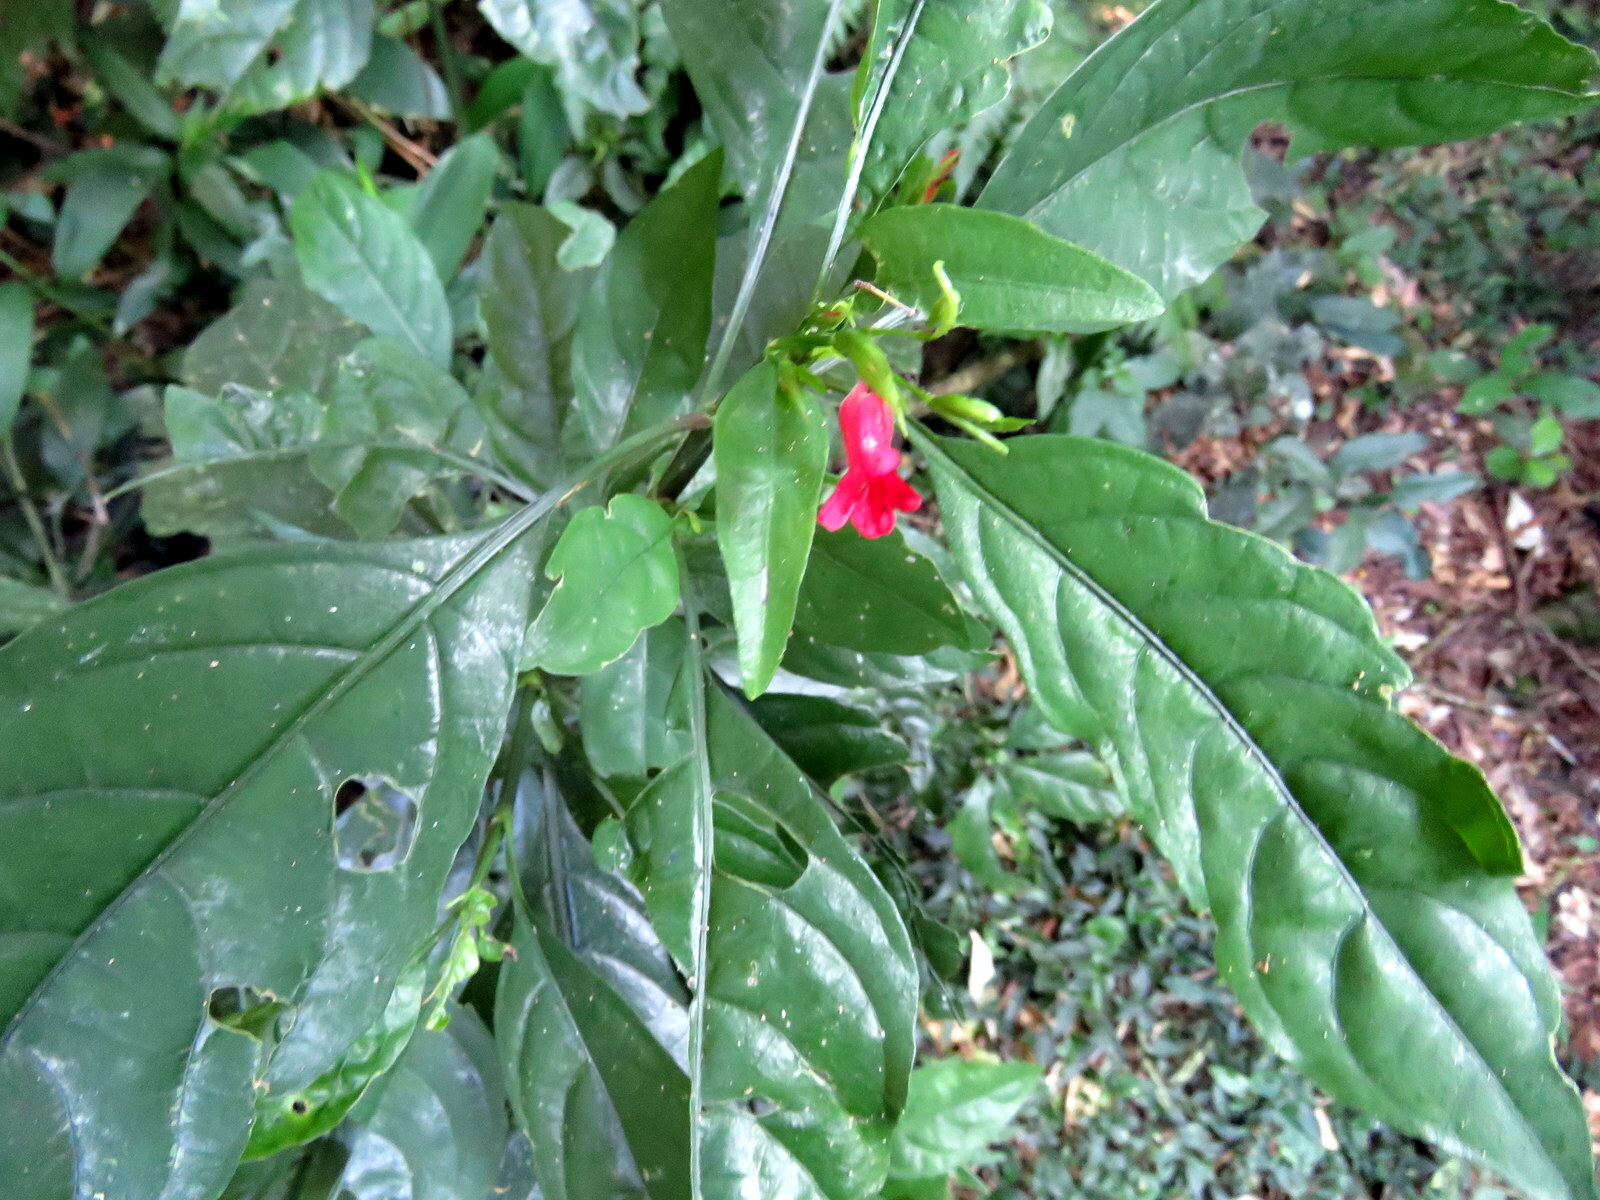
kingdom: Plantae
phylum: Tracheophyta
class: Magnoliopsida
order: Lamiales
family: Acanthaceae
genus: Ruellia
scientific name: Ruellia angustiflora
